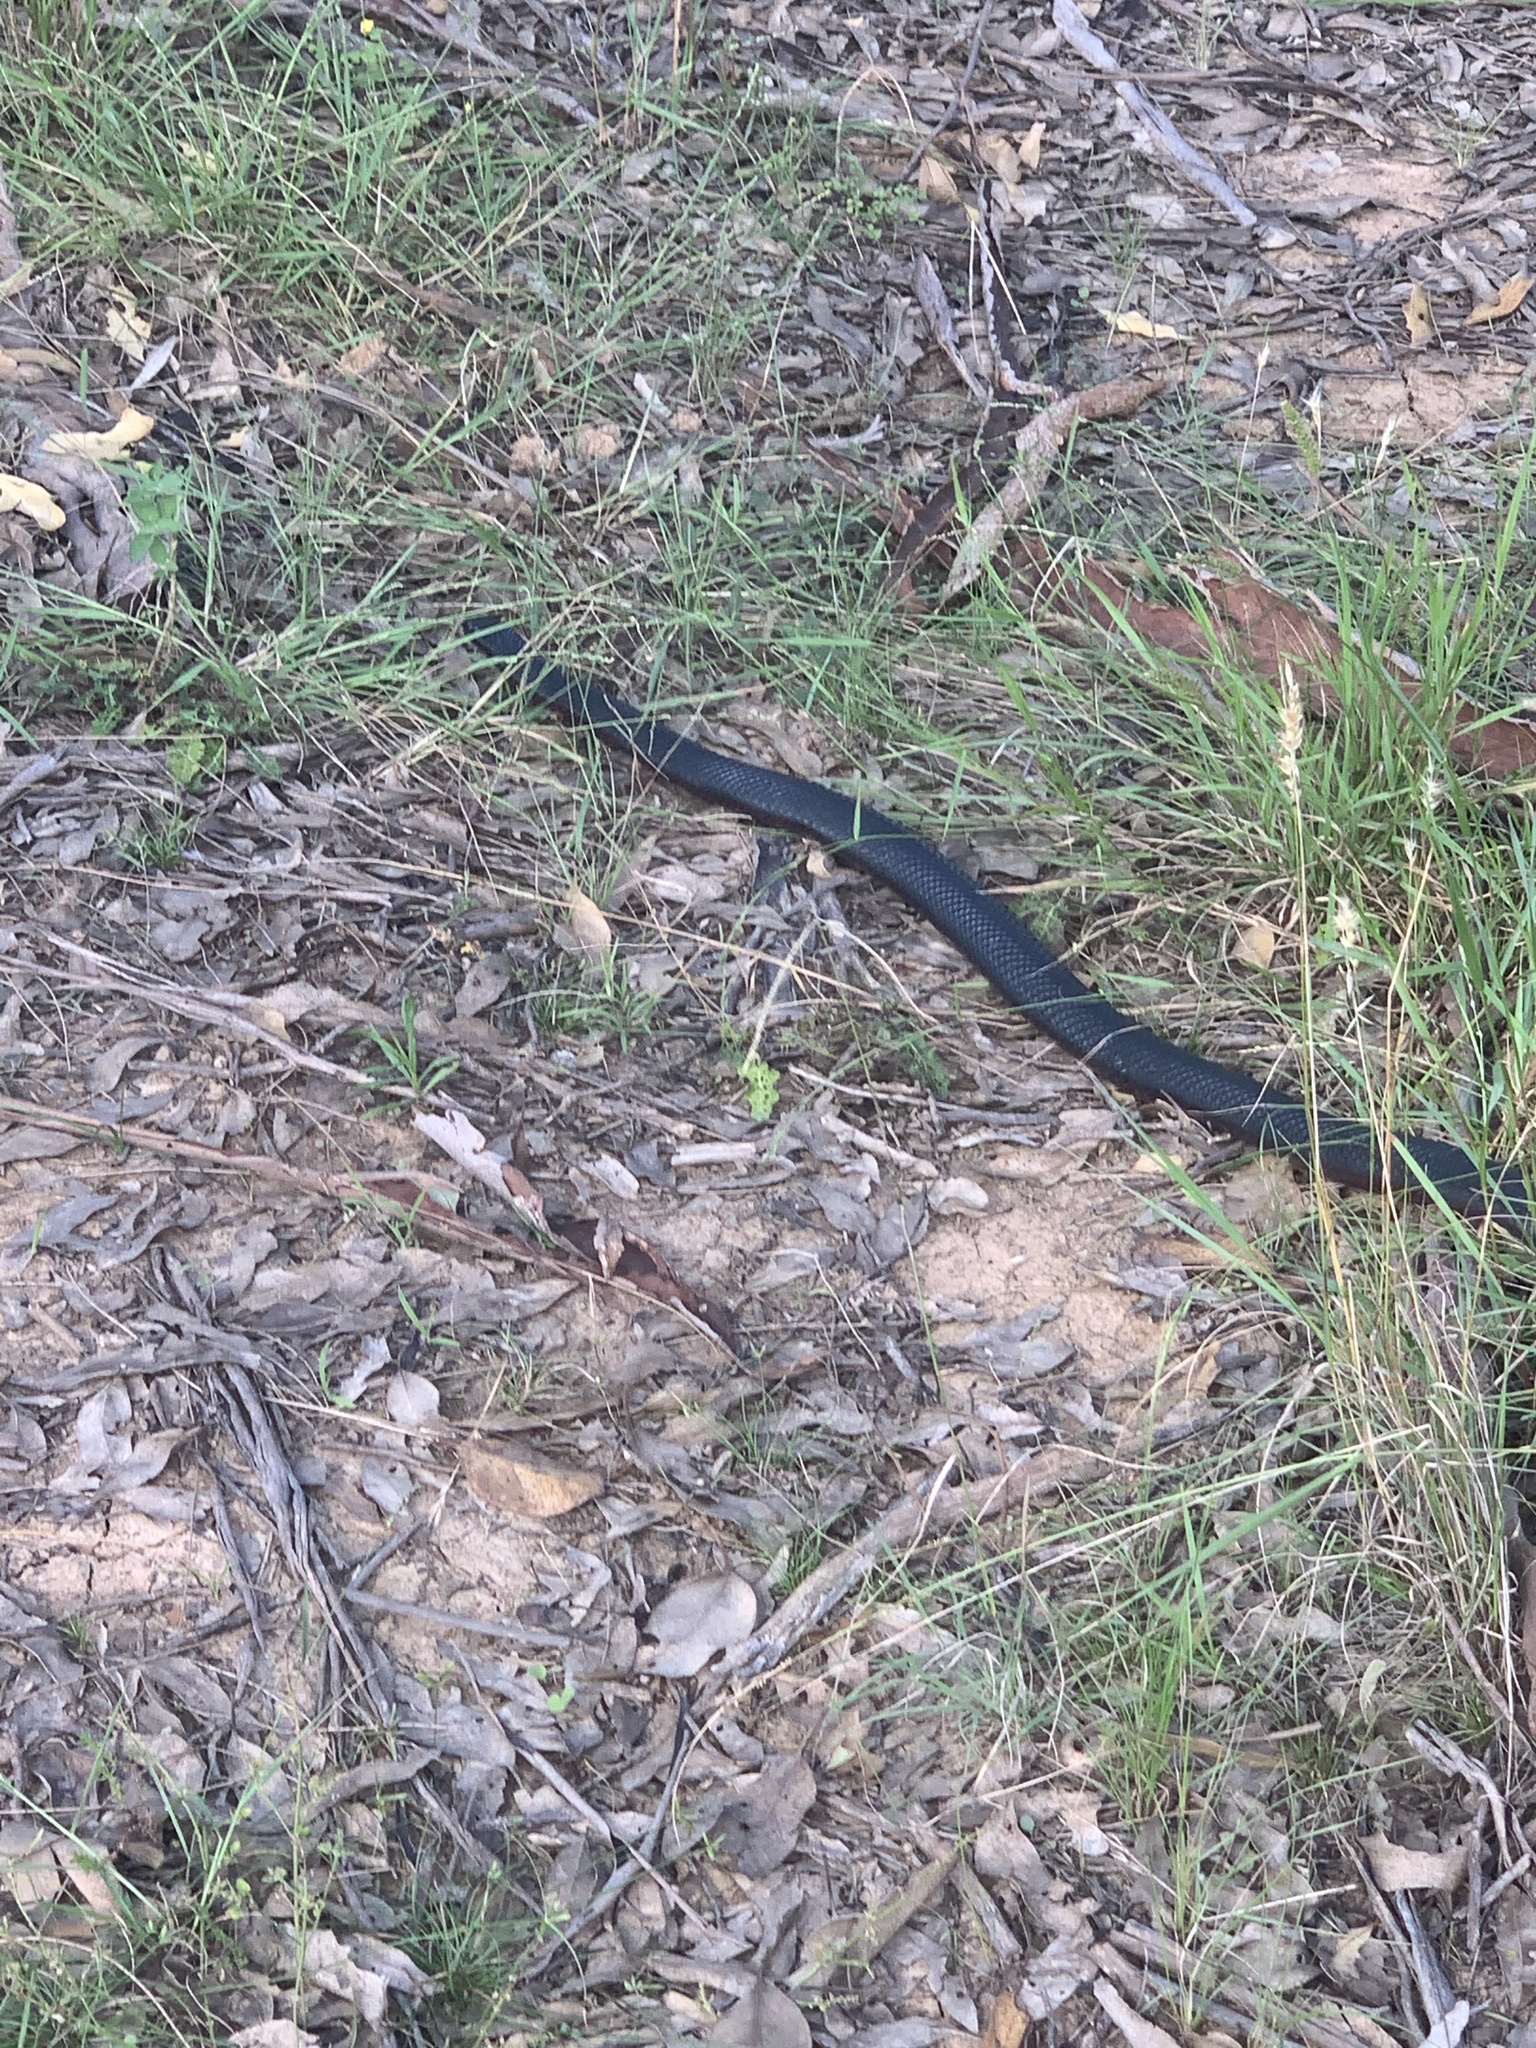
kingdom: Animalia
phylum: Chordata
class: Squamata
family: Elapidae
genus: Pseudechis
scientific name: Pseudechis porphyriacus
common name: Australian black snake
